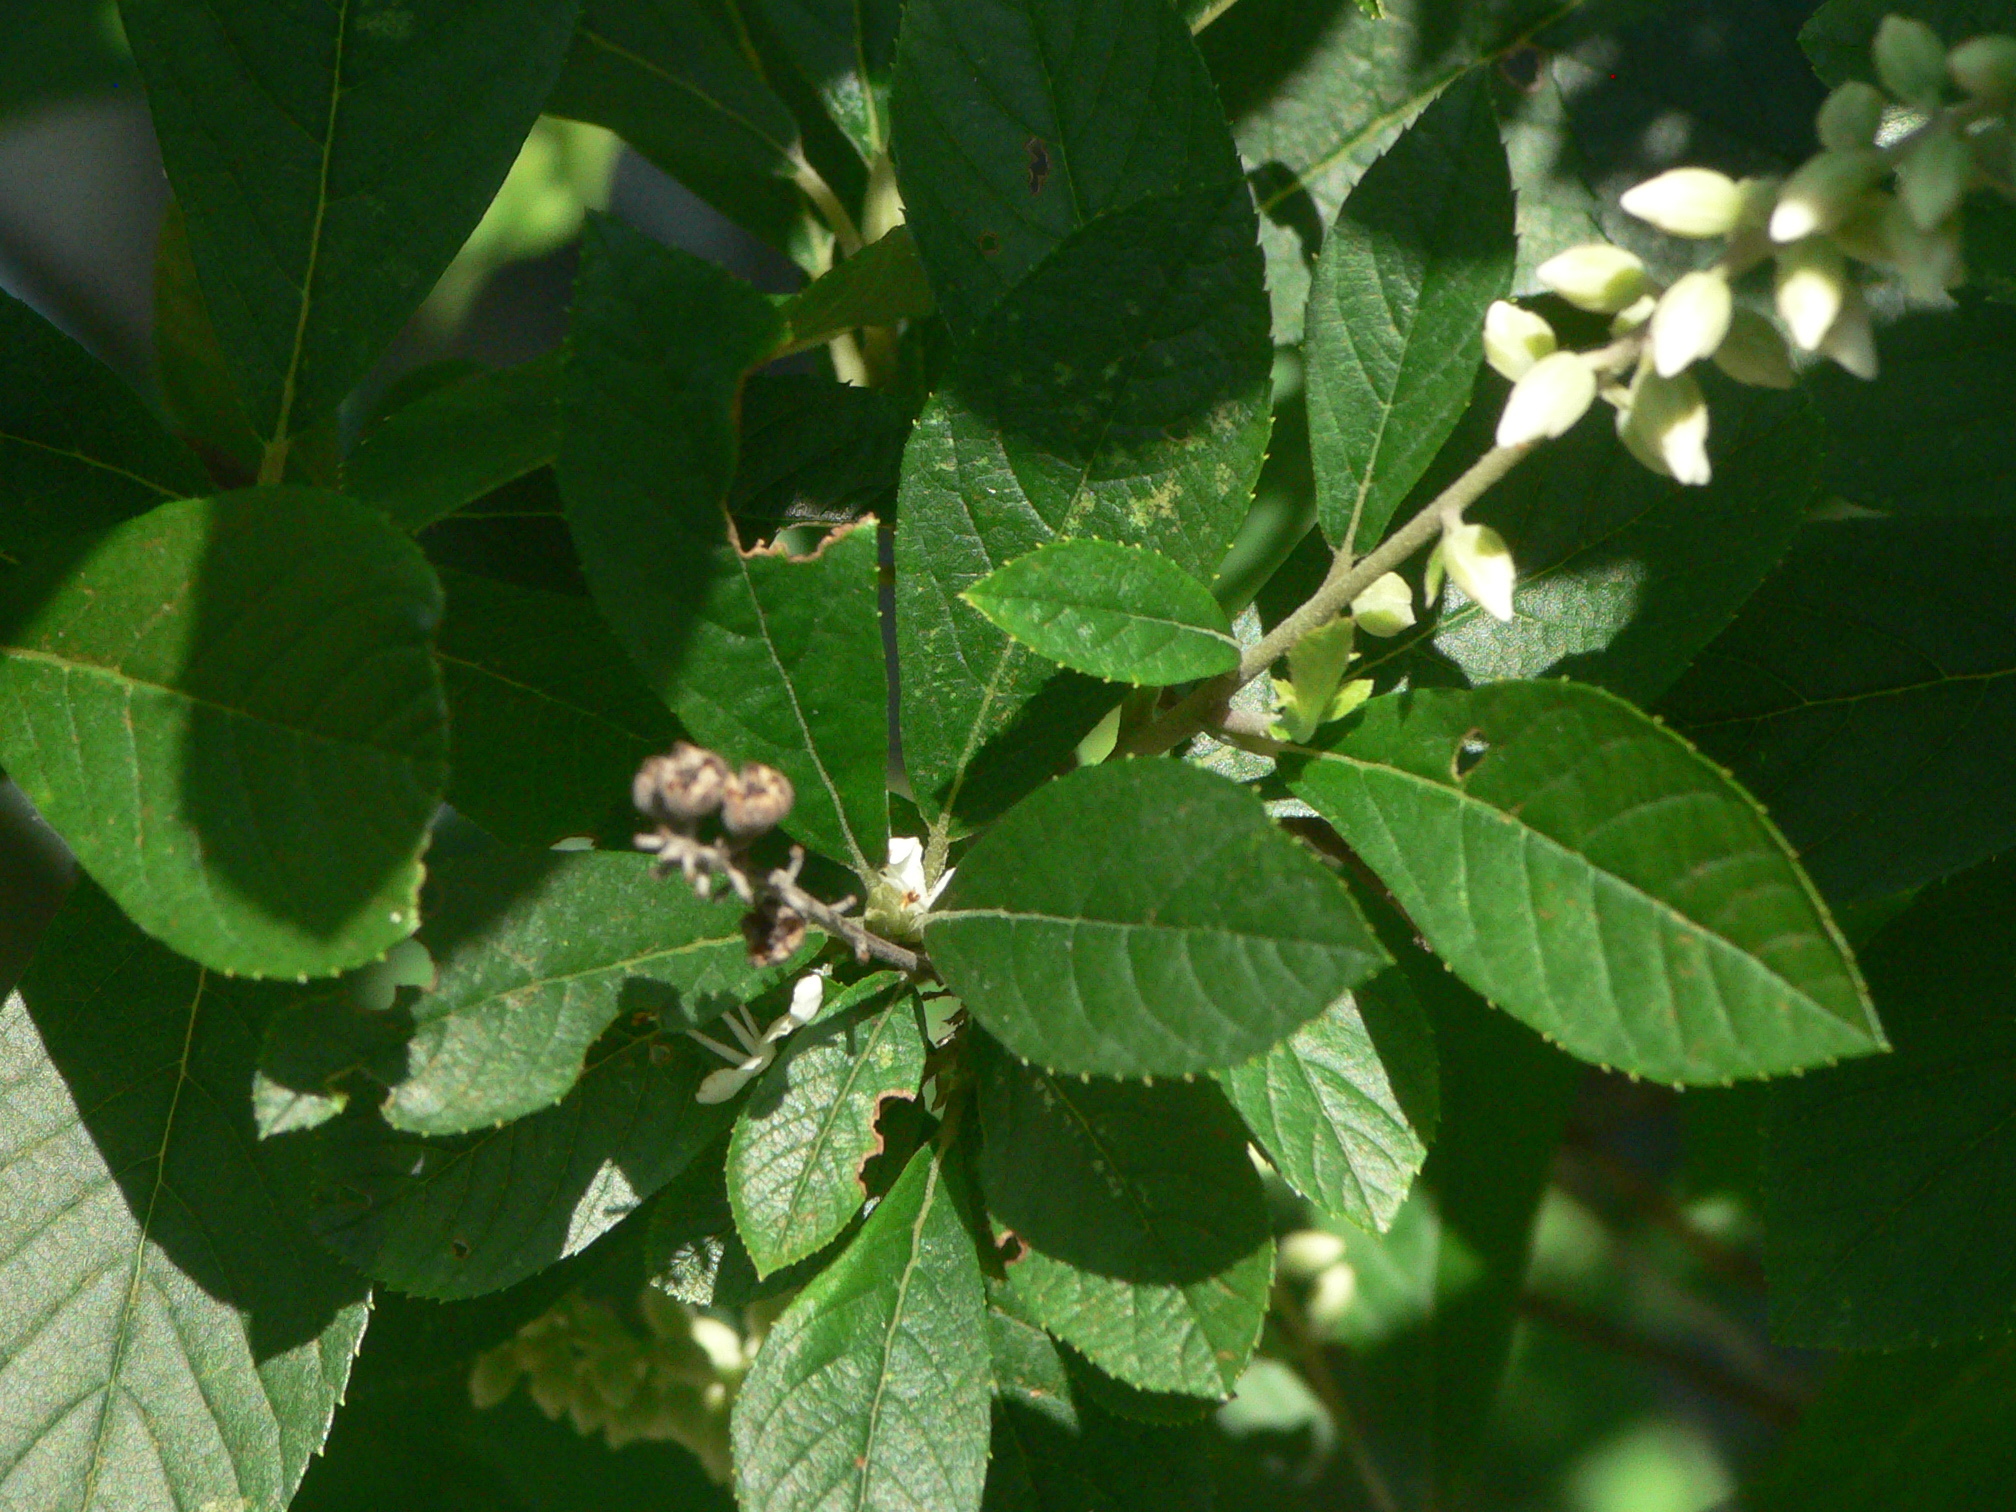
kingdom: Plantae
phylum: Tracheophyta
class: Magnoliopsida
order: Ericales
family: Clethraceae
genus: Clethra
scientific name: Clethra alnifolia
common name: Sweet pepperbush
